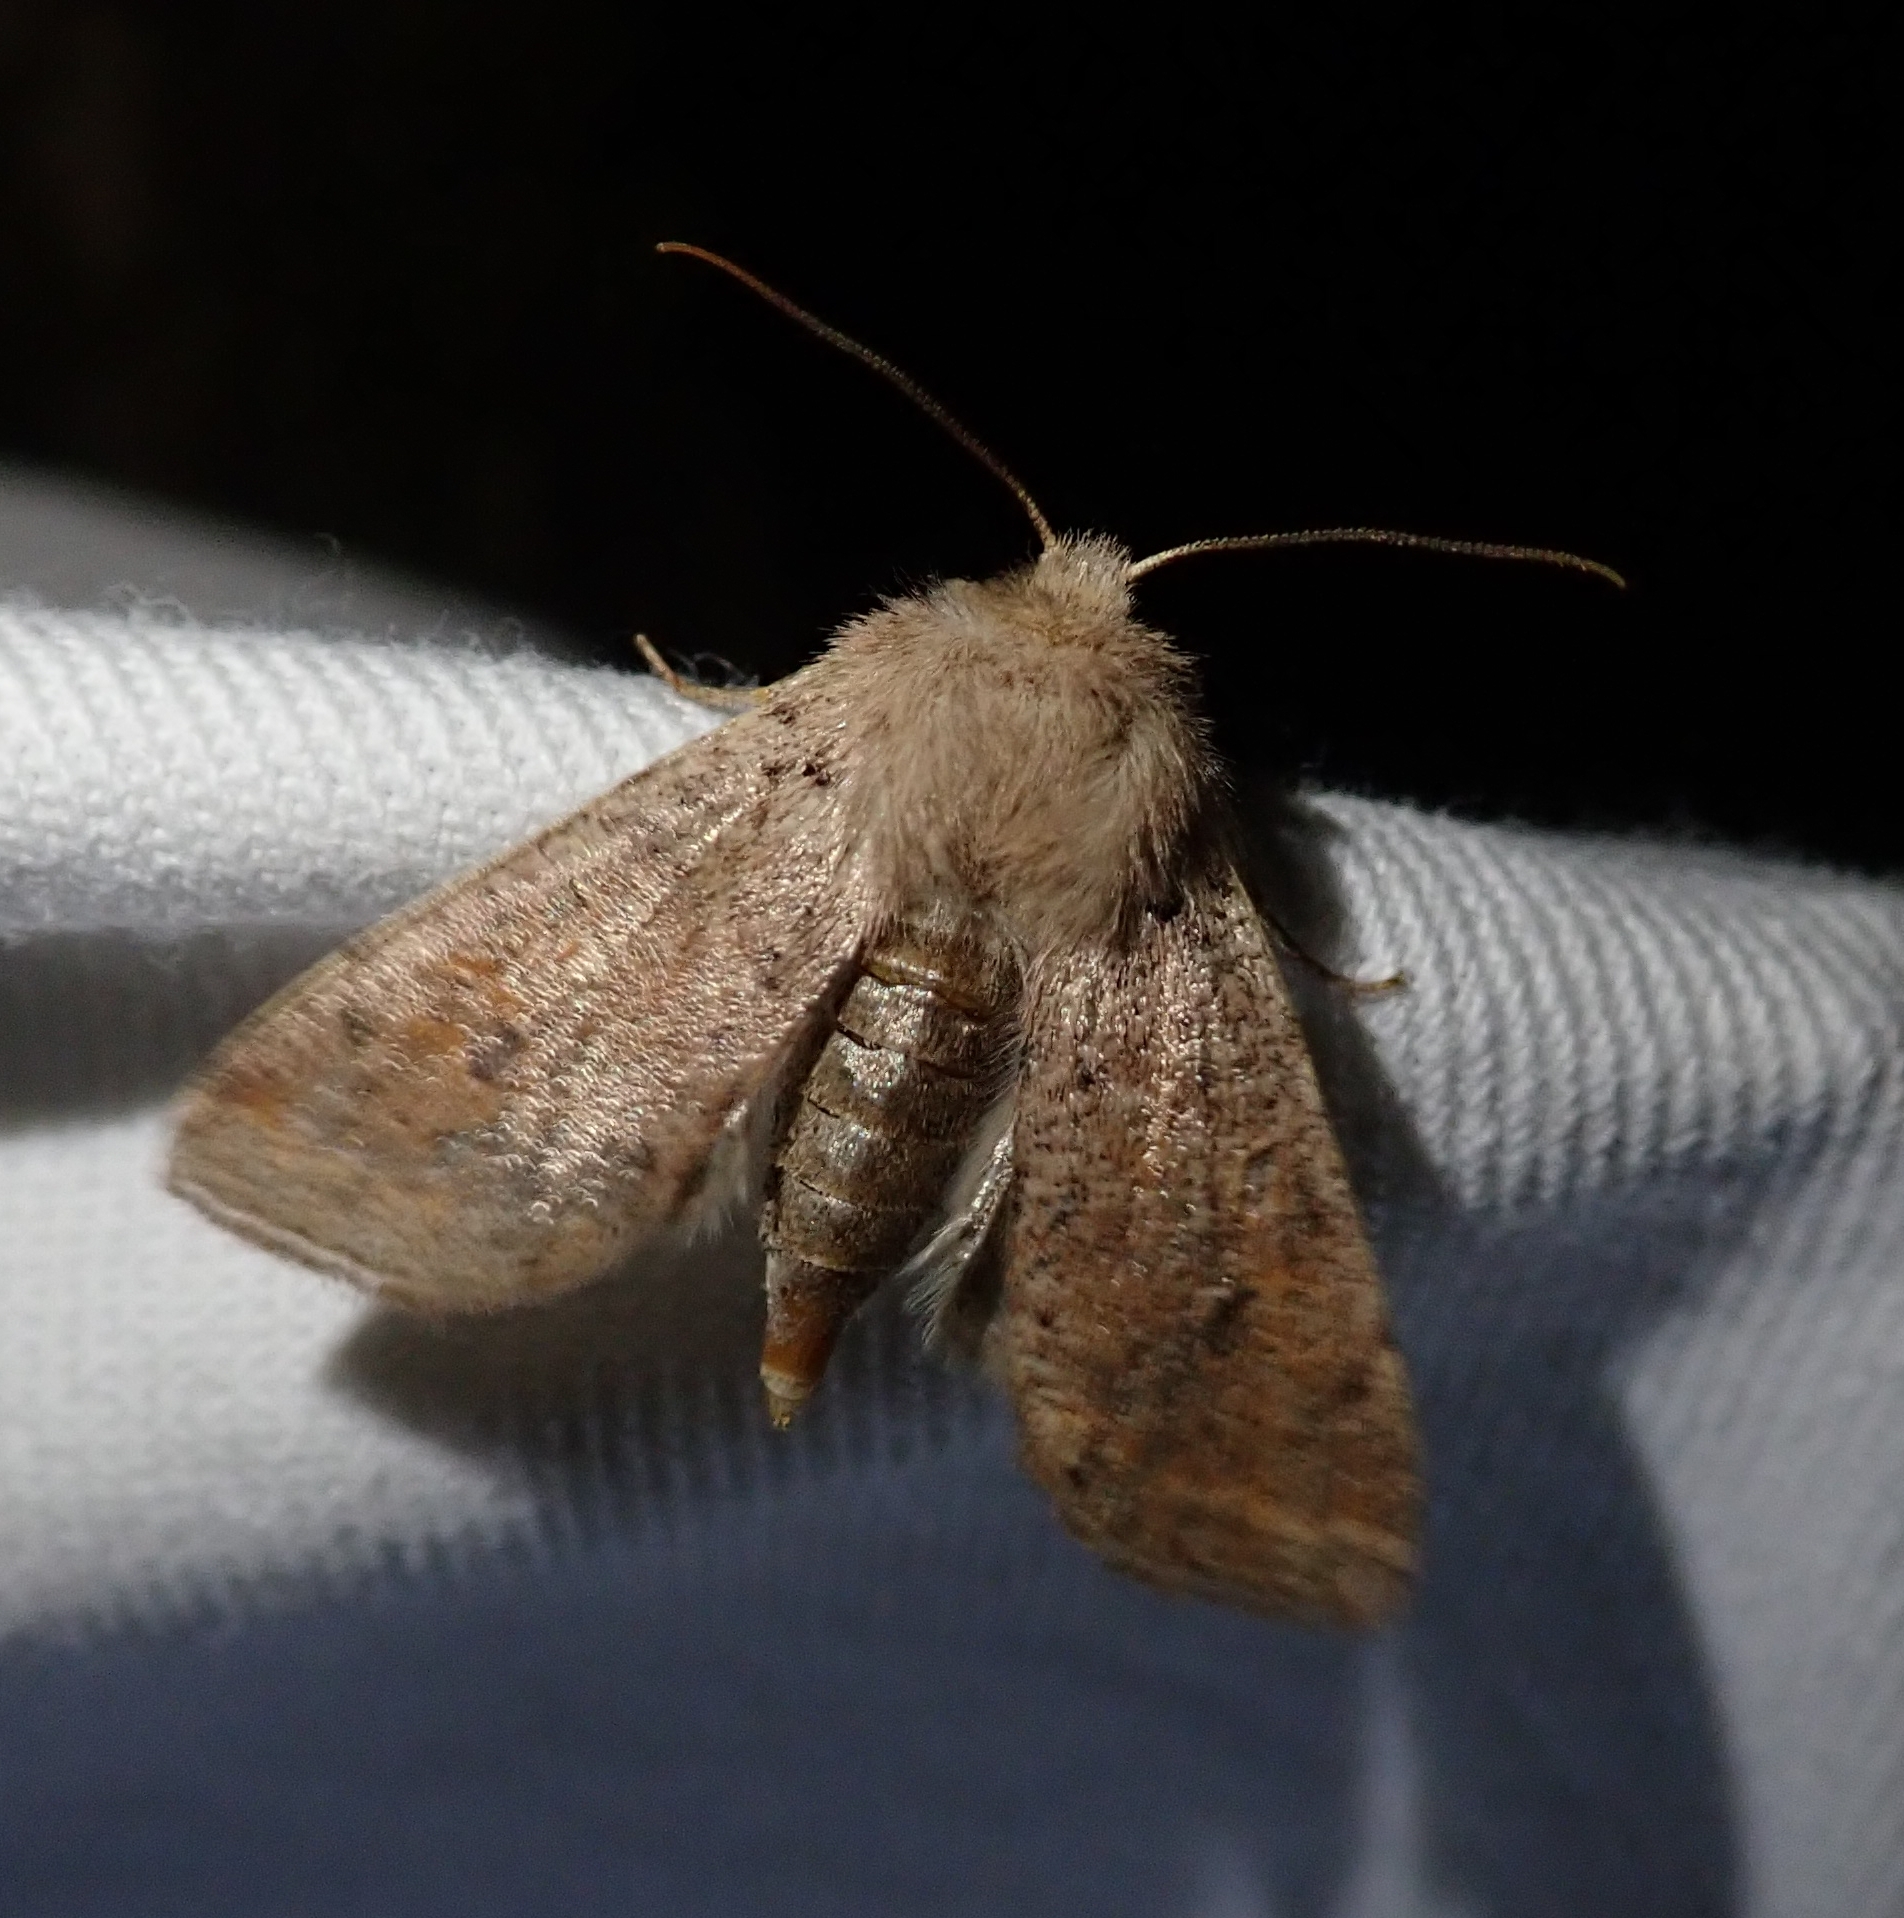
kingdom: Animalia
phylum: Arthropoda
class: Insecta
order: Lepidoptera
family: Noctuidae
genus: Orthosia
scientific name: Orthosia cruda
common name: Small quaker
